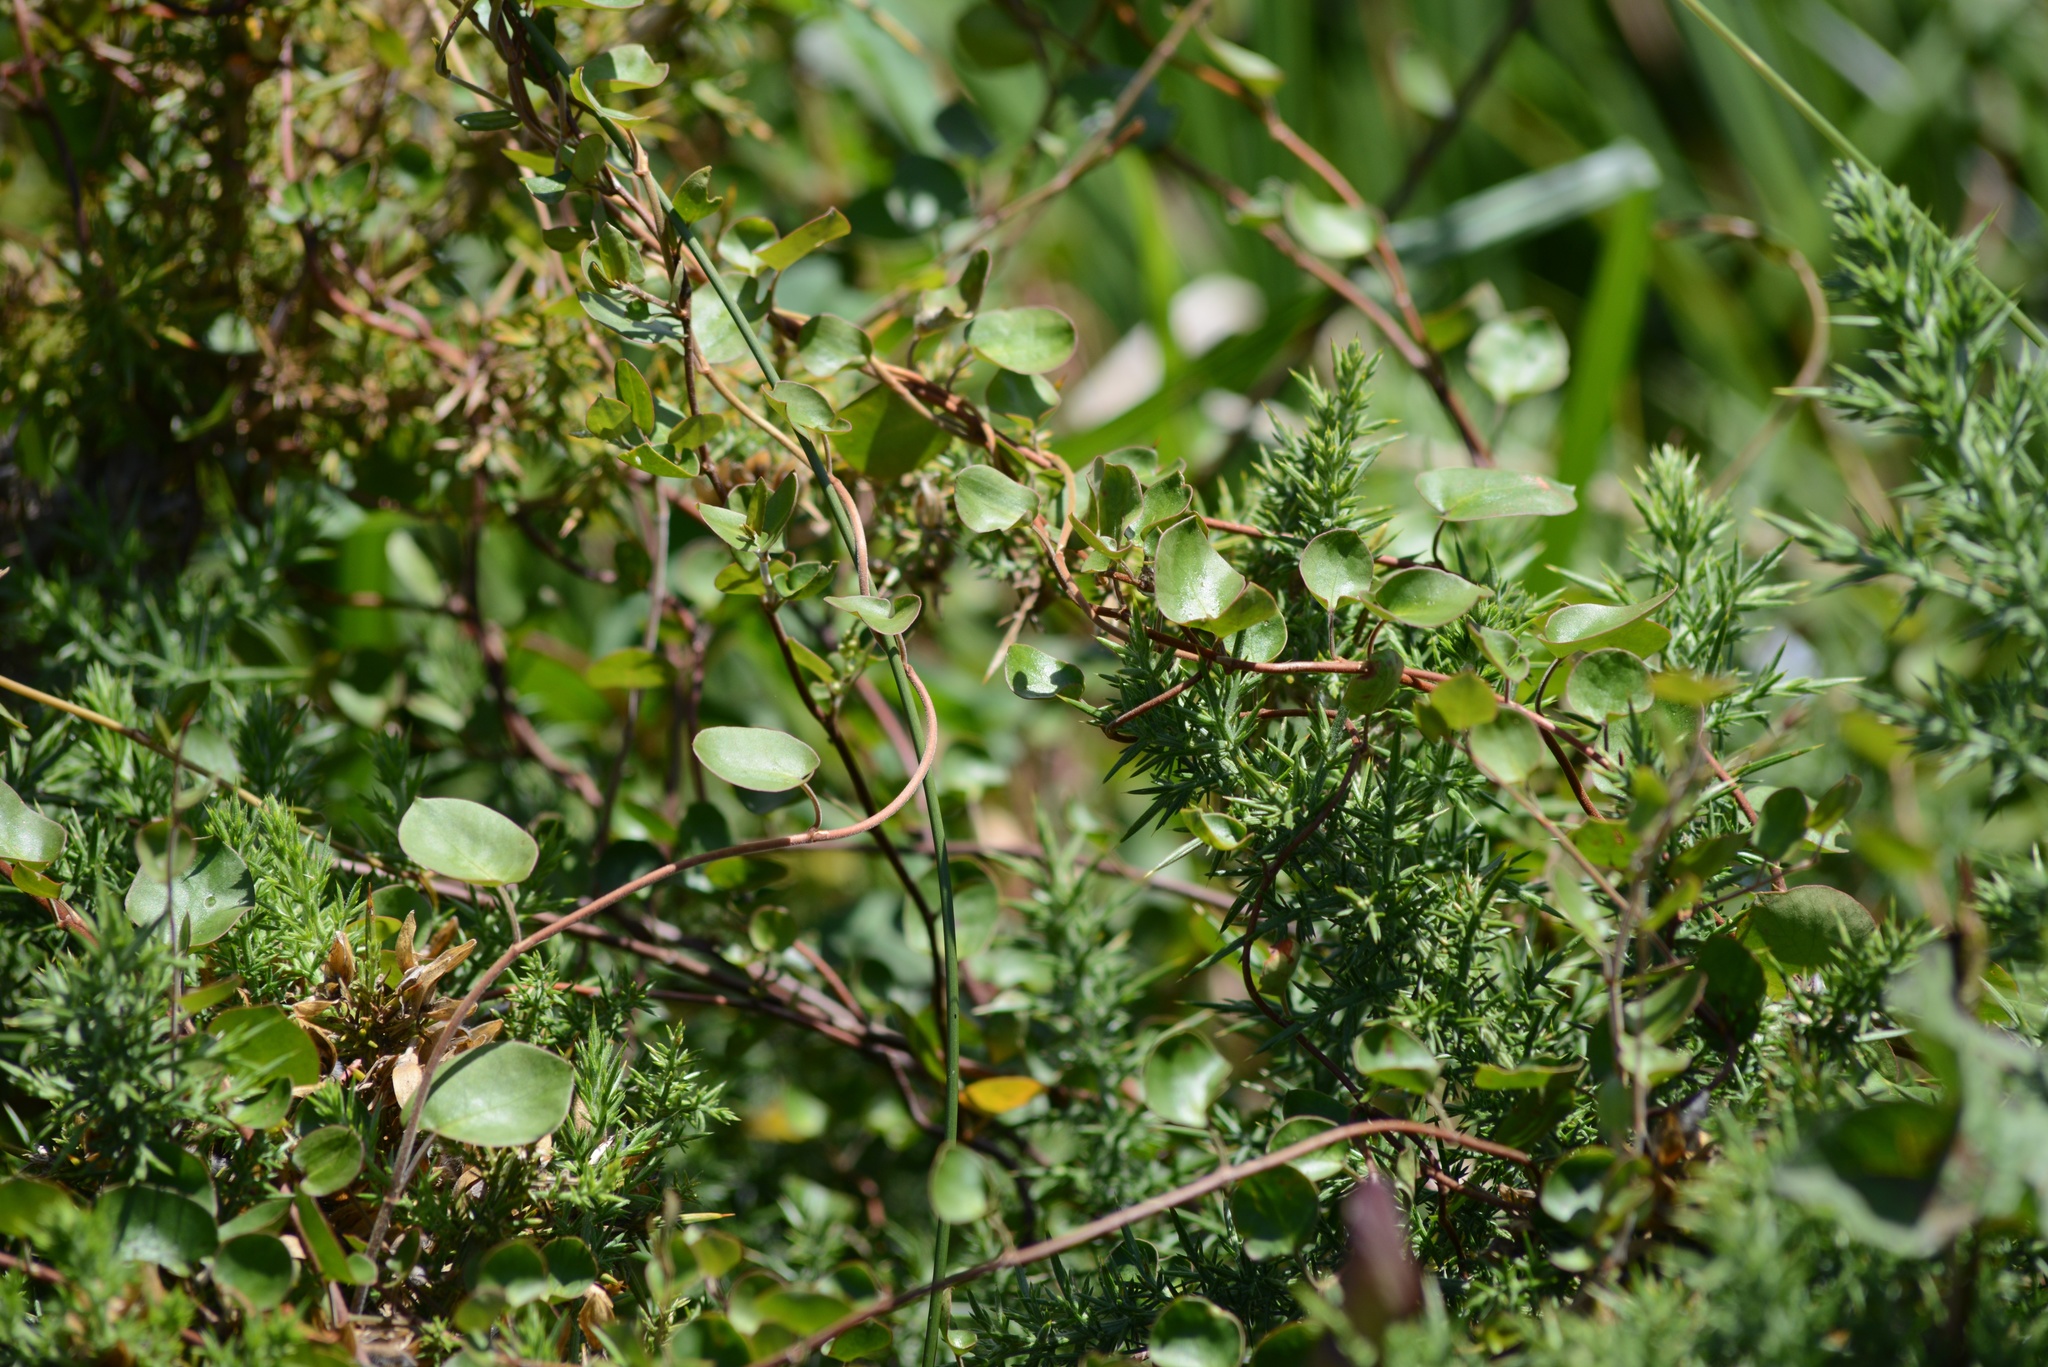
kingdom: Plantae
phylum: Tracheophyta
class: Magnoliopsida
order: Caryophyllales
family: Polygonaceae
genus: Muehlenbeckia
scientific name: Muehlenbeckia complexa
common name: Wireplant
